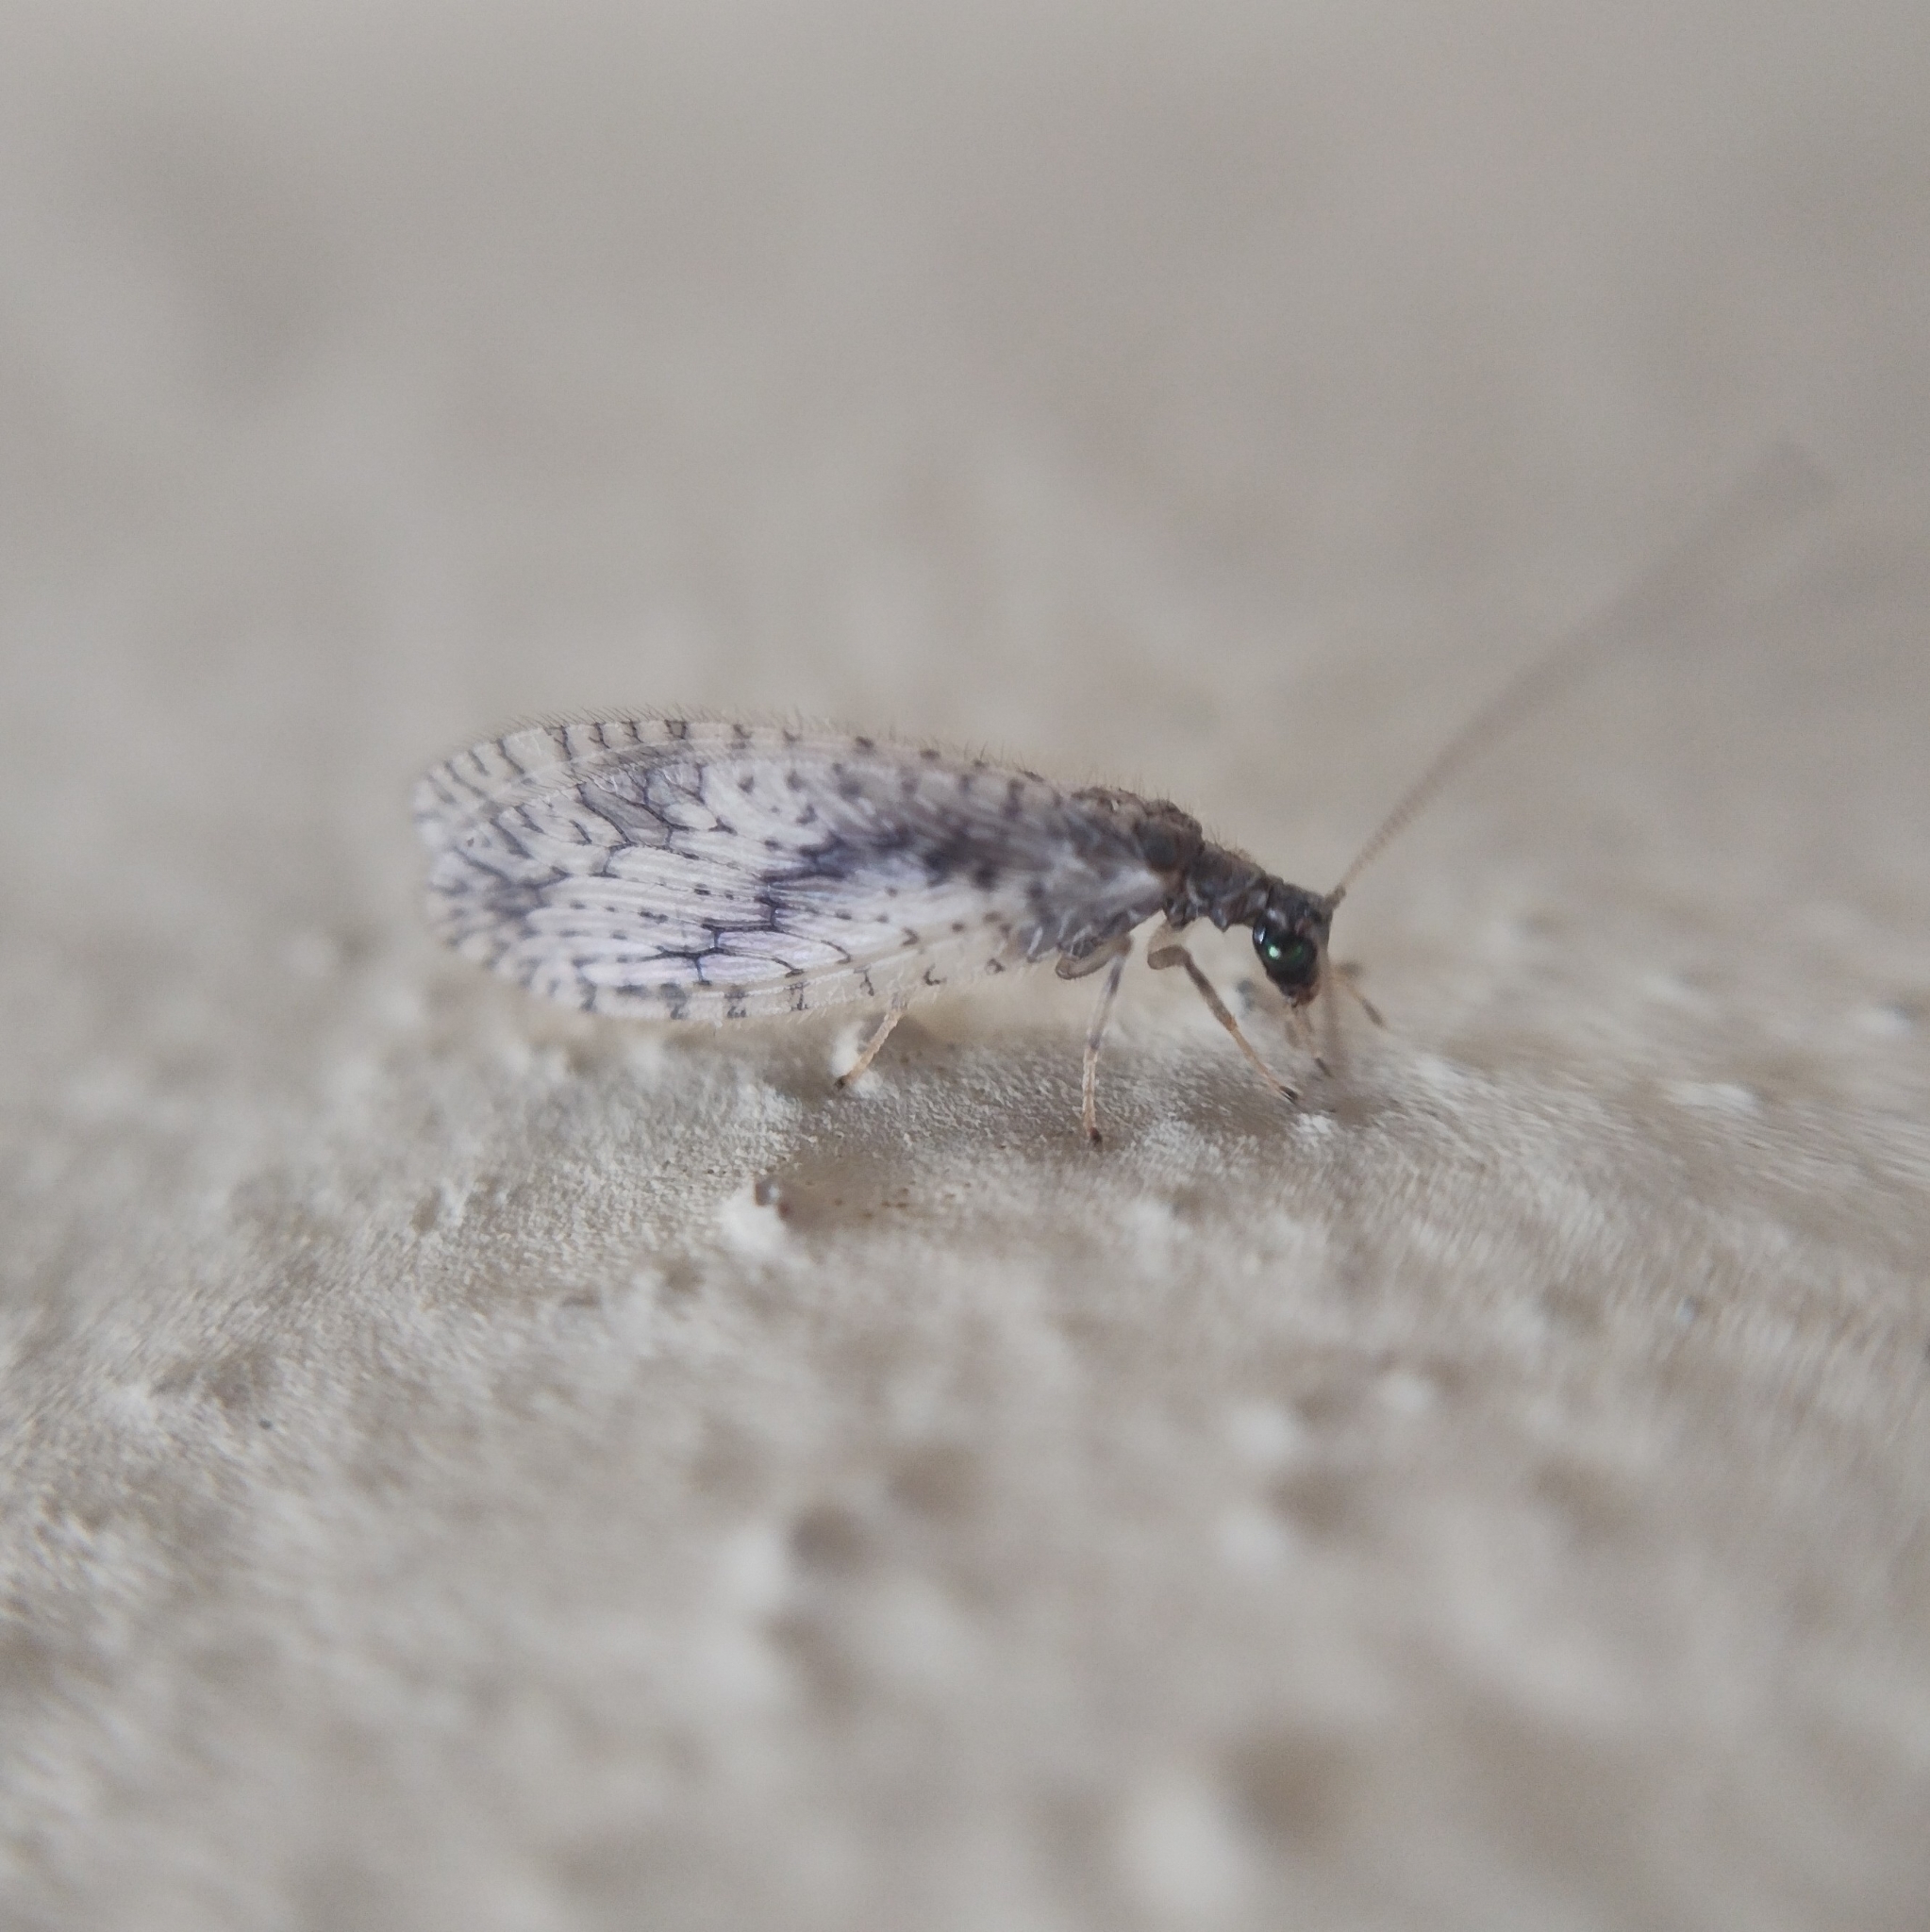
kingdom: Animalia
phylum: Arthropoda
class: Insecta
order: Neuroptera
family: Hemerobiidae
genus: Micromus
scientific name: Micromus variegatus
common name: Brown lacewing
